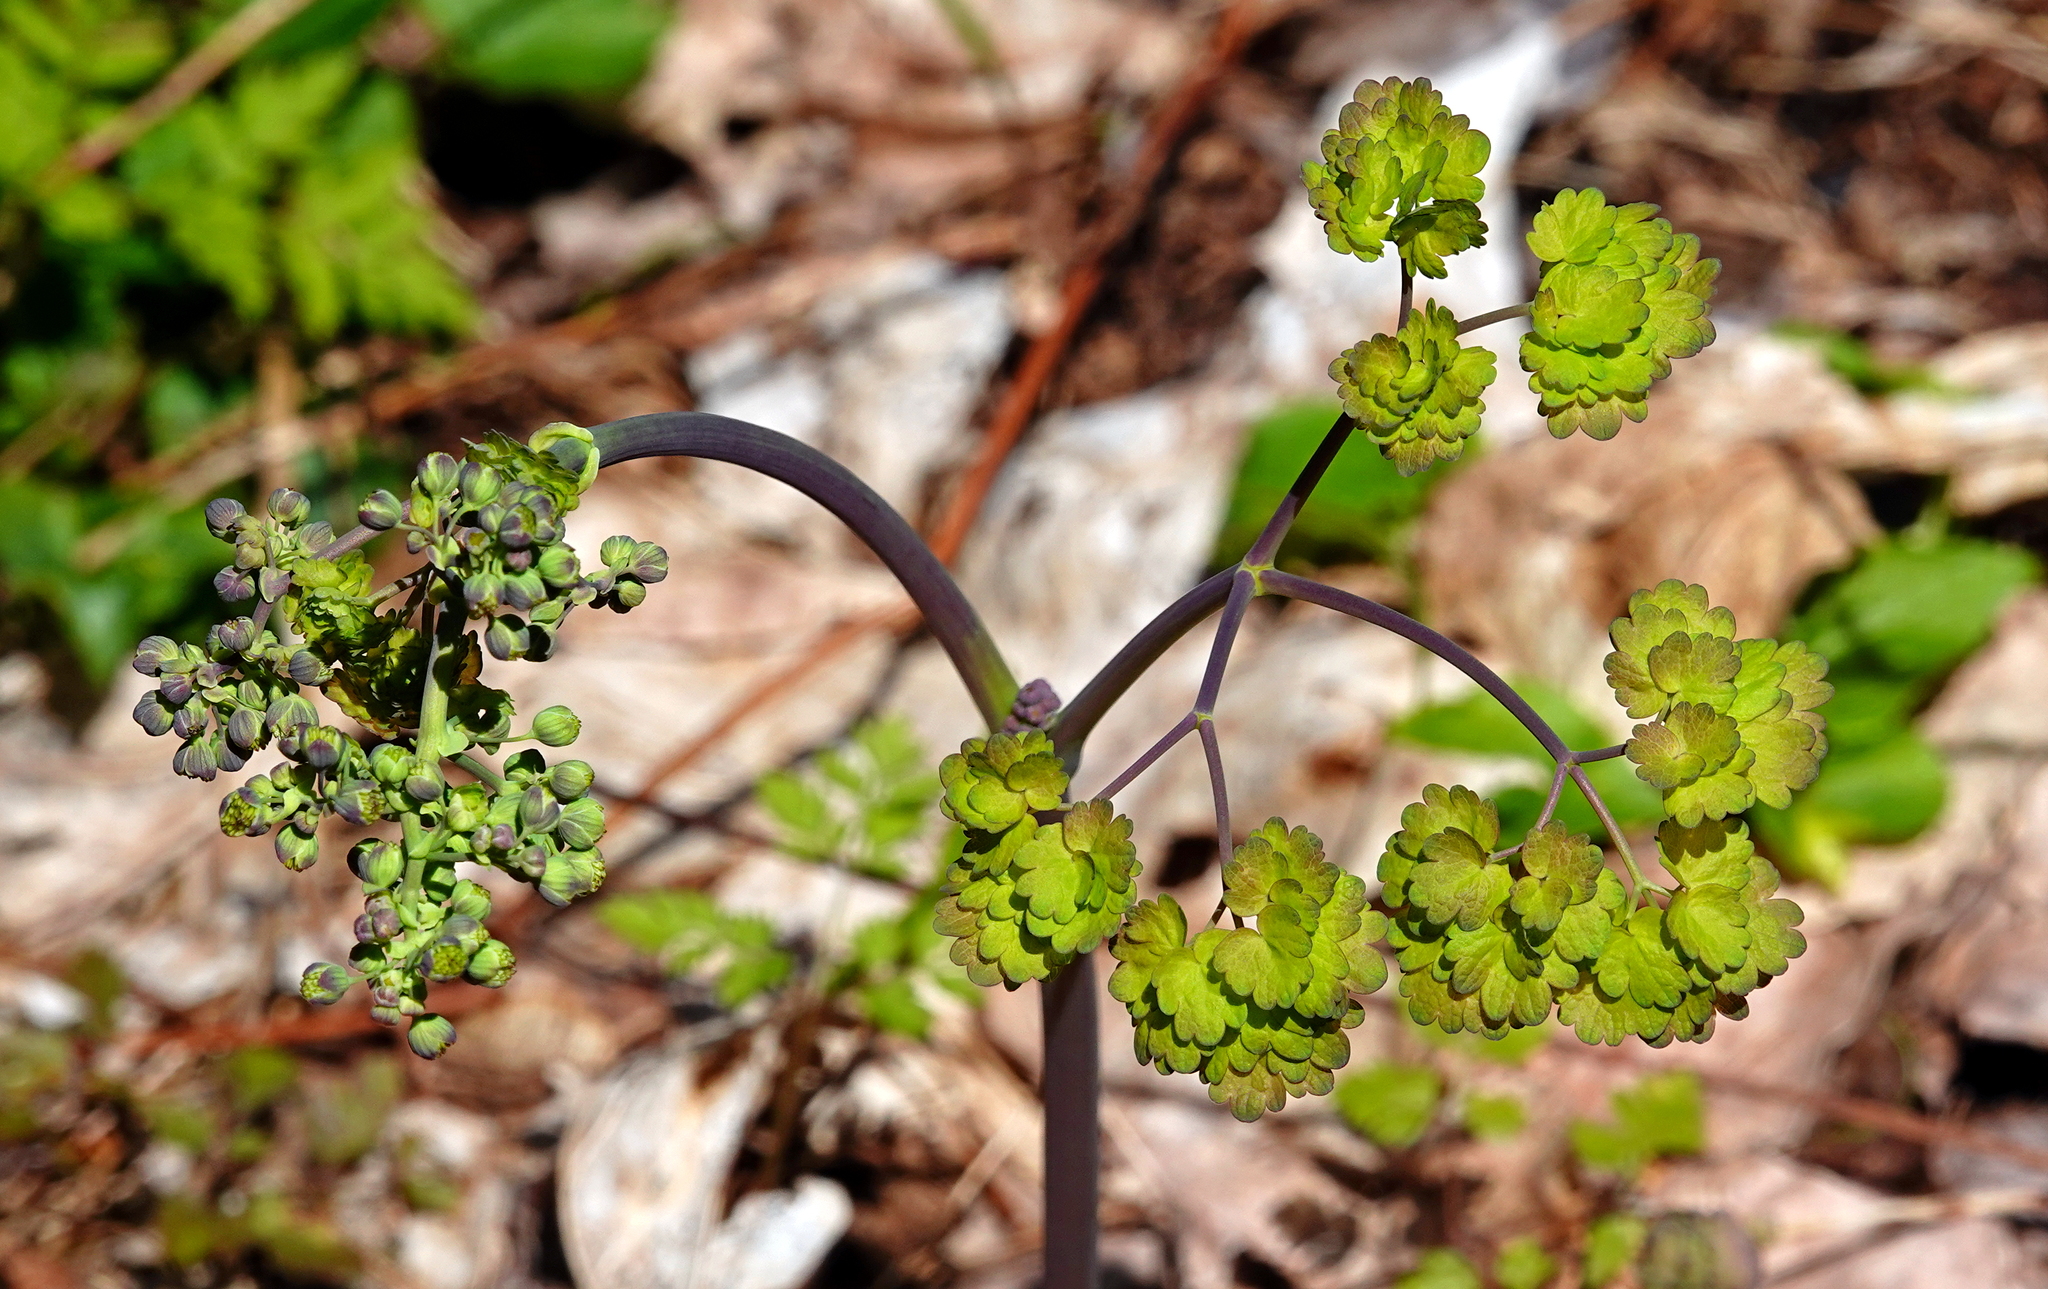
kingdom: Plantae
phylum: Tracheophyta
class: Magnoliopsida
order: Ranunculales
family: Ranunculaceae
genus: Thalictrum
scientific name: Thalictrum dioicum
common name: Early meadow-rue
